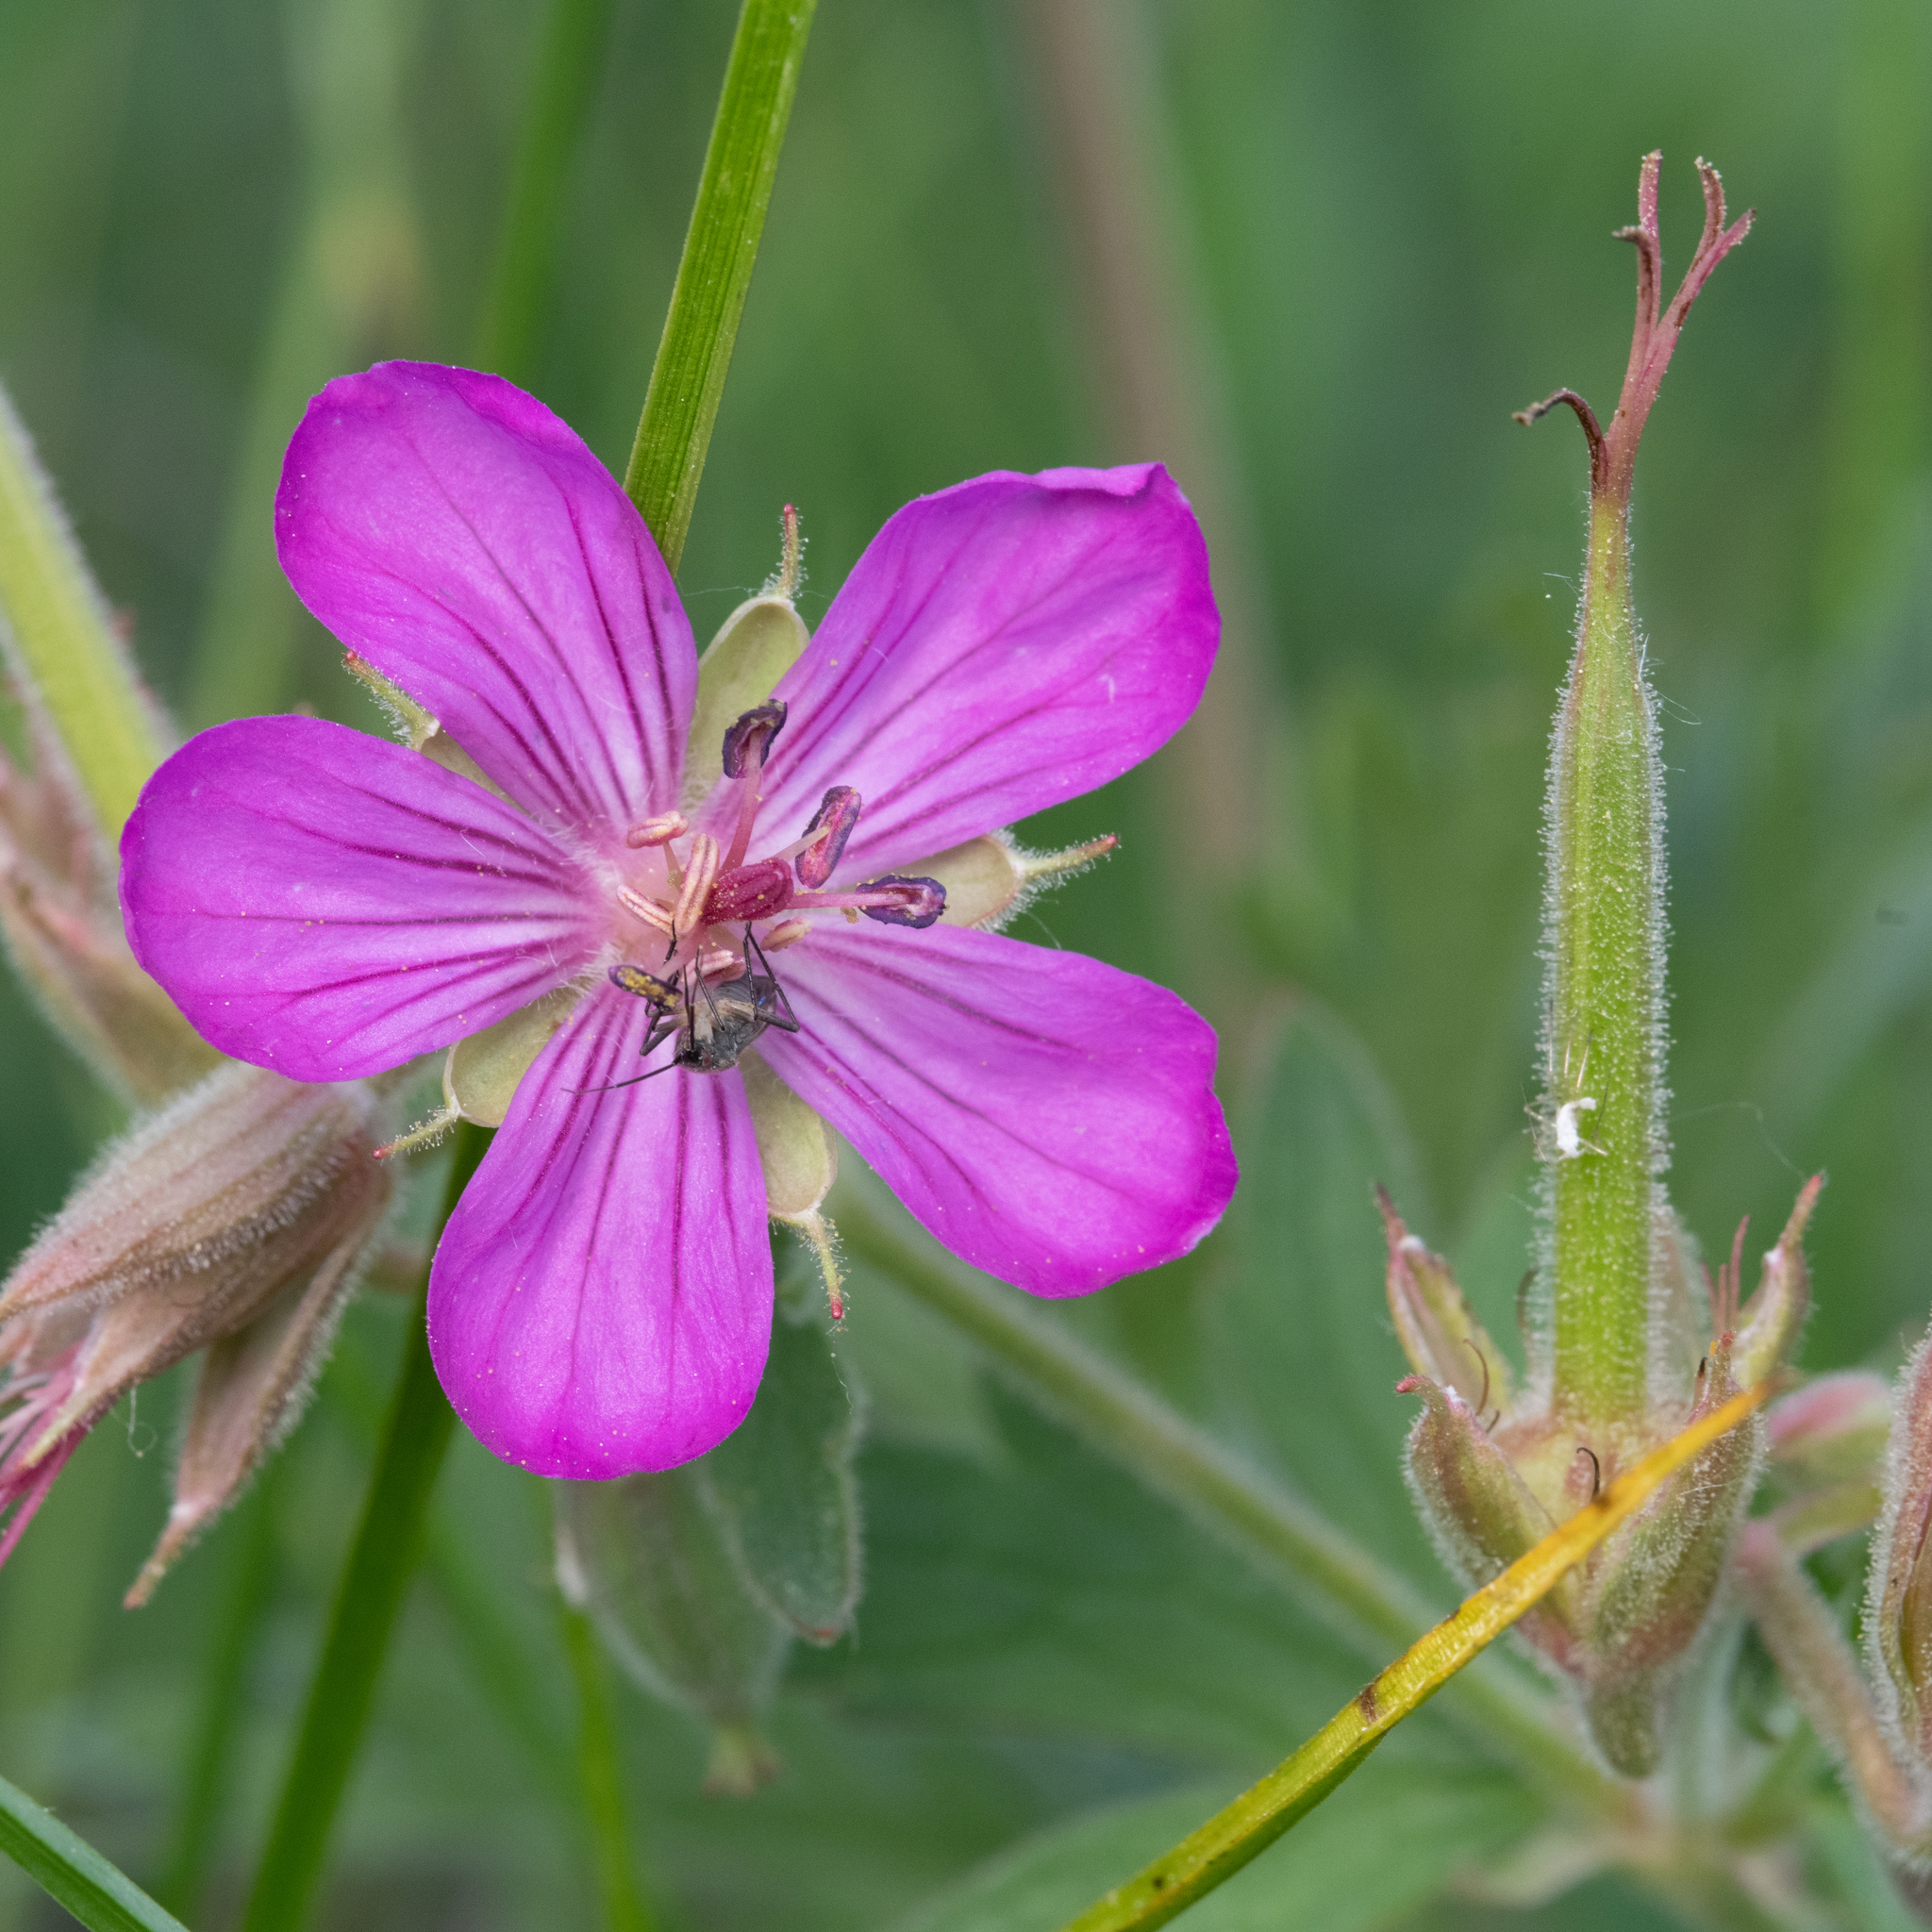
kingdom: Plantae
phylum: Tracheophyta
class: Magnoliopsida
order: Geraniales
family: Geraniaceae
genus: Geranium
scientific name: Geranium viscosissimum
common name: Purple geranium
